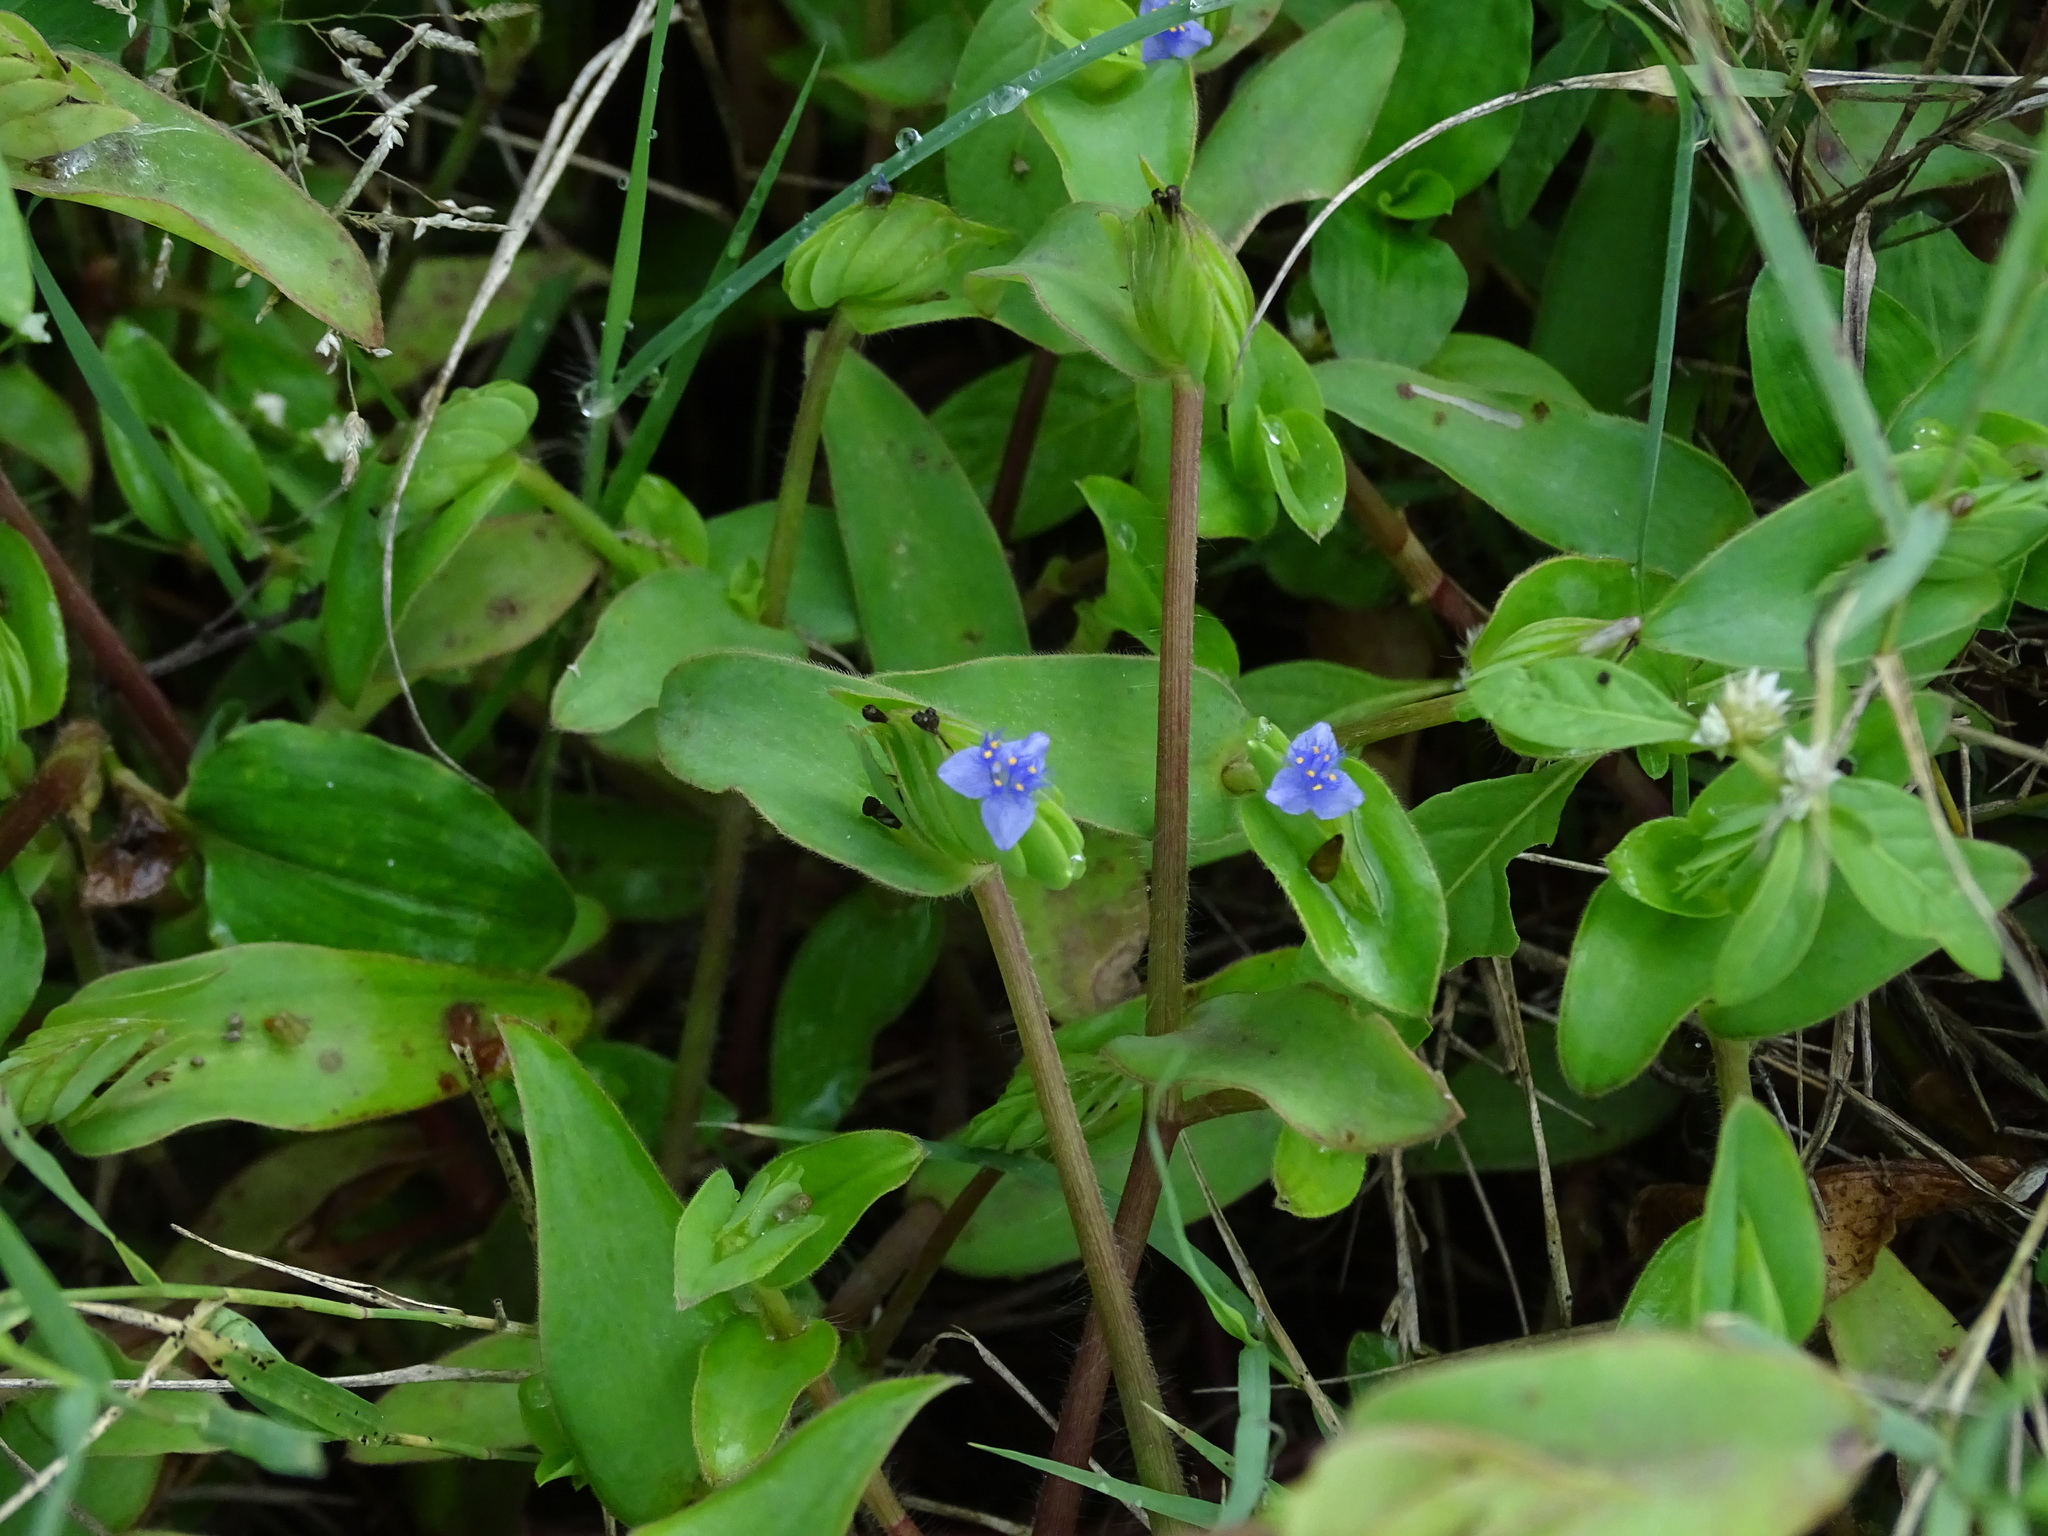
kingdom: Plantae
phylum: Tracheophyta
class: Liliopsida
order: Commelinales
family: Commelinaceae
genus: Cyanotis
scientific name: Cyanotis cristata
